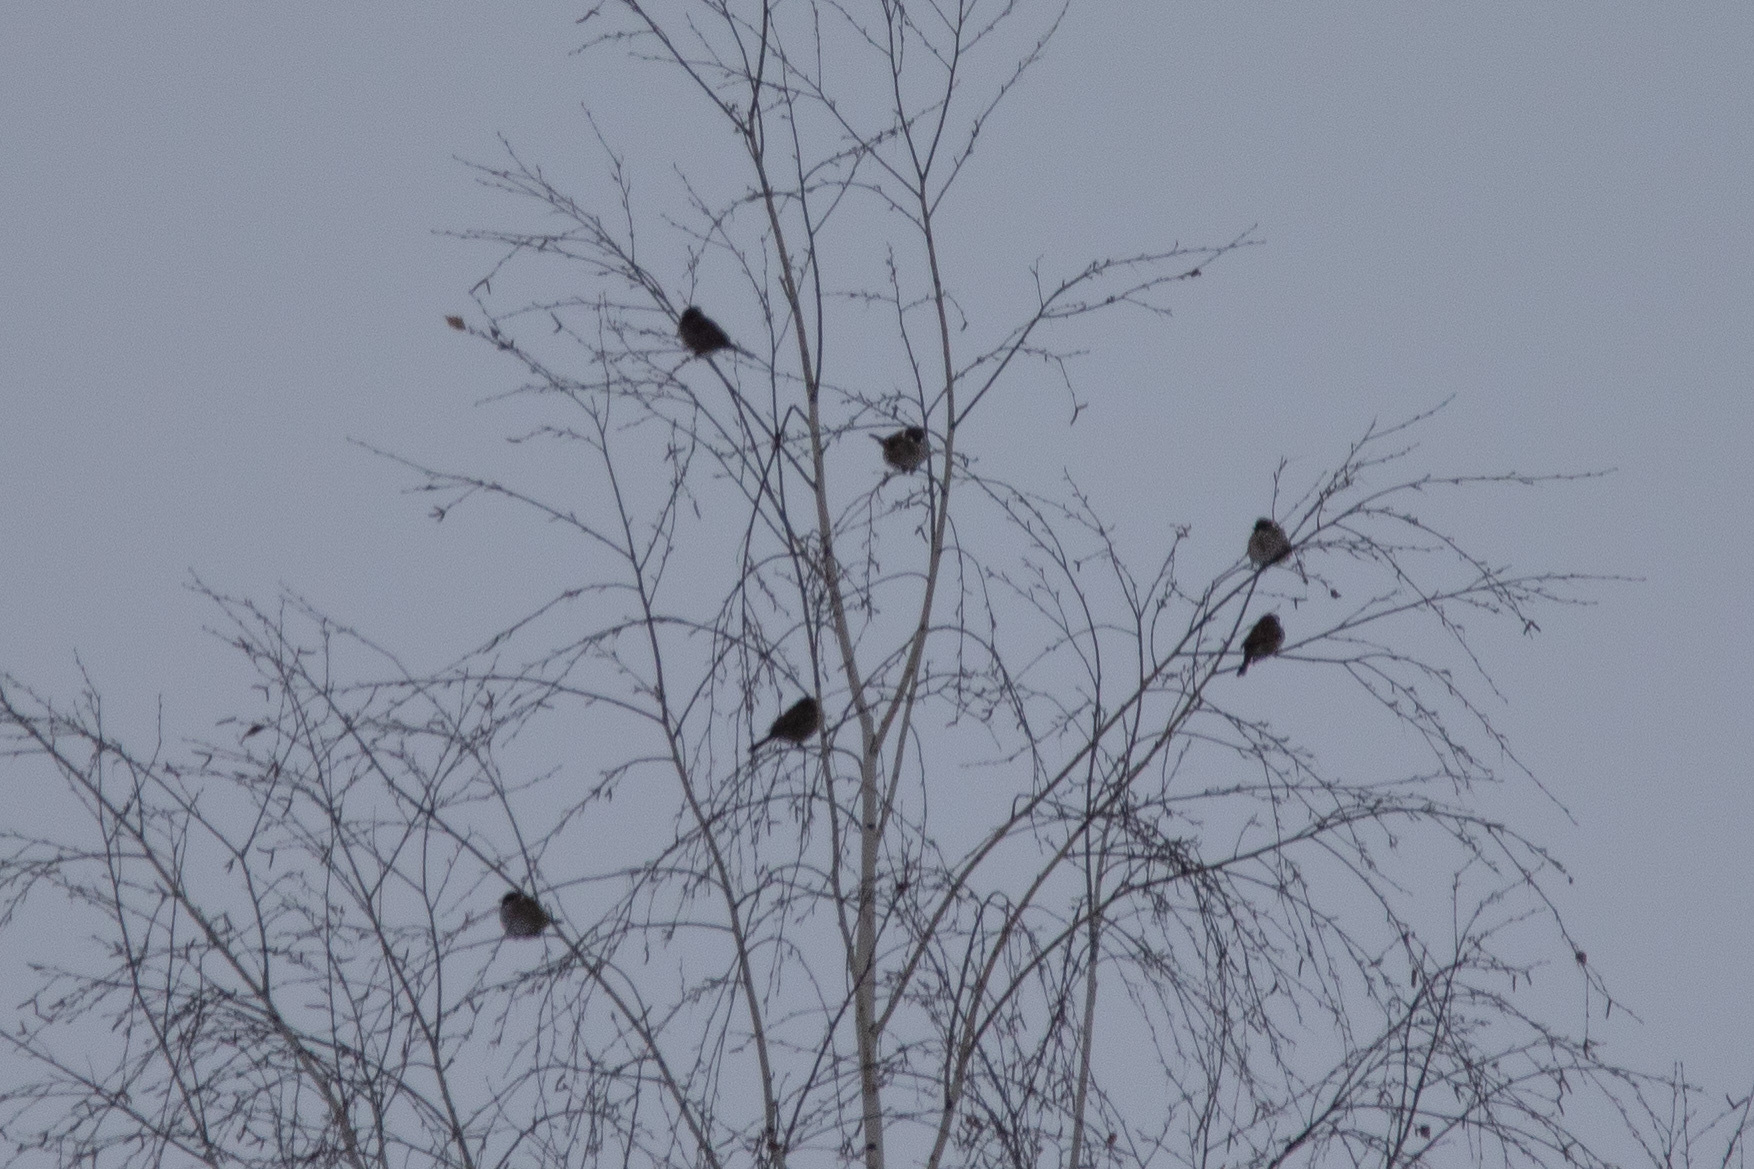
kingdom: Animalia
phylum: Chordata
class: Aves
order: Passeriformes
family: Passeridae
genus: Passer
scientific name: Passer montanus
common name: Eurasian tree sparrow
